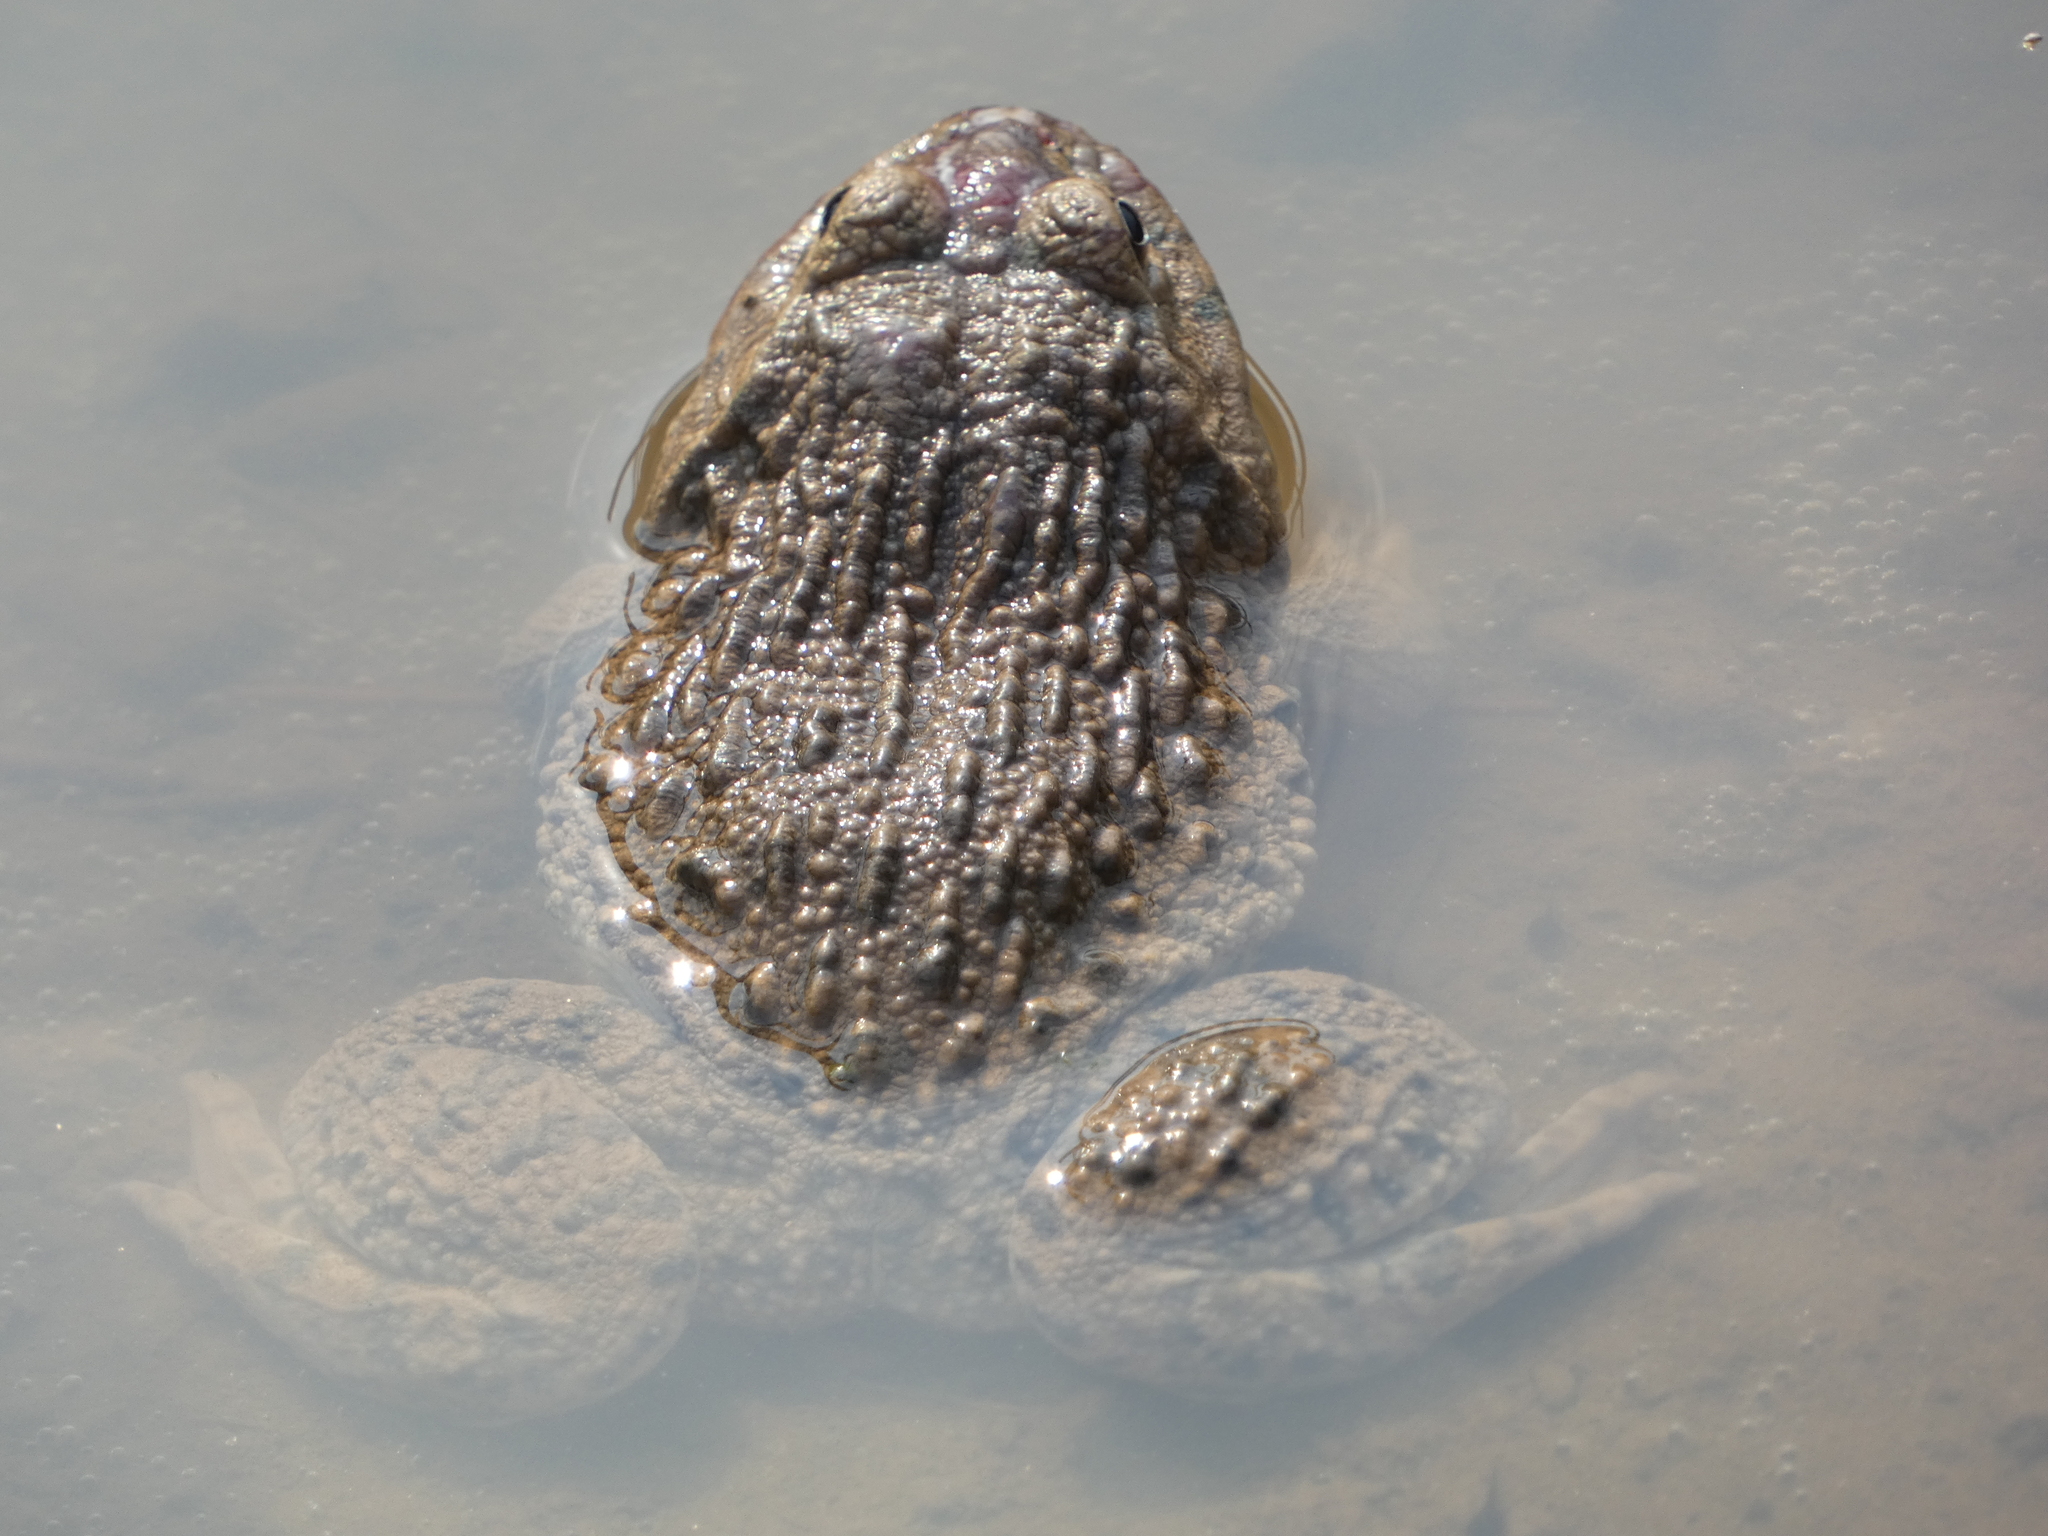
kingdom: Animalia
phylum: Chordata
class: Amphibia
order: Anura
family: Dicroglossidae
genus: Hoplobatrachus
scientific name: Hoplobatrachus rugulosus
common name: Chinese edible frog
